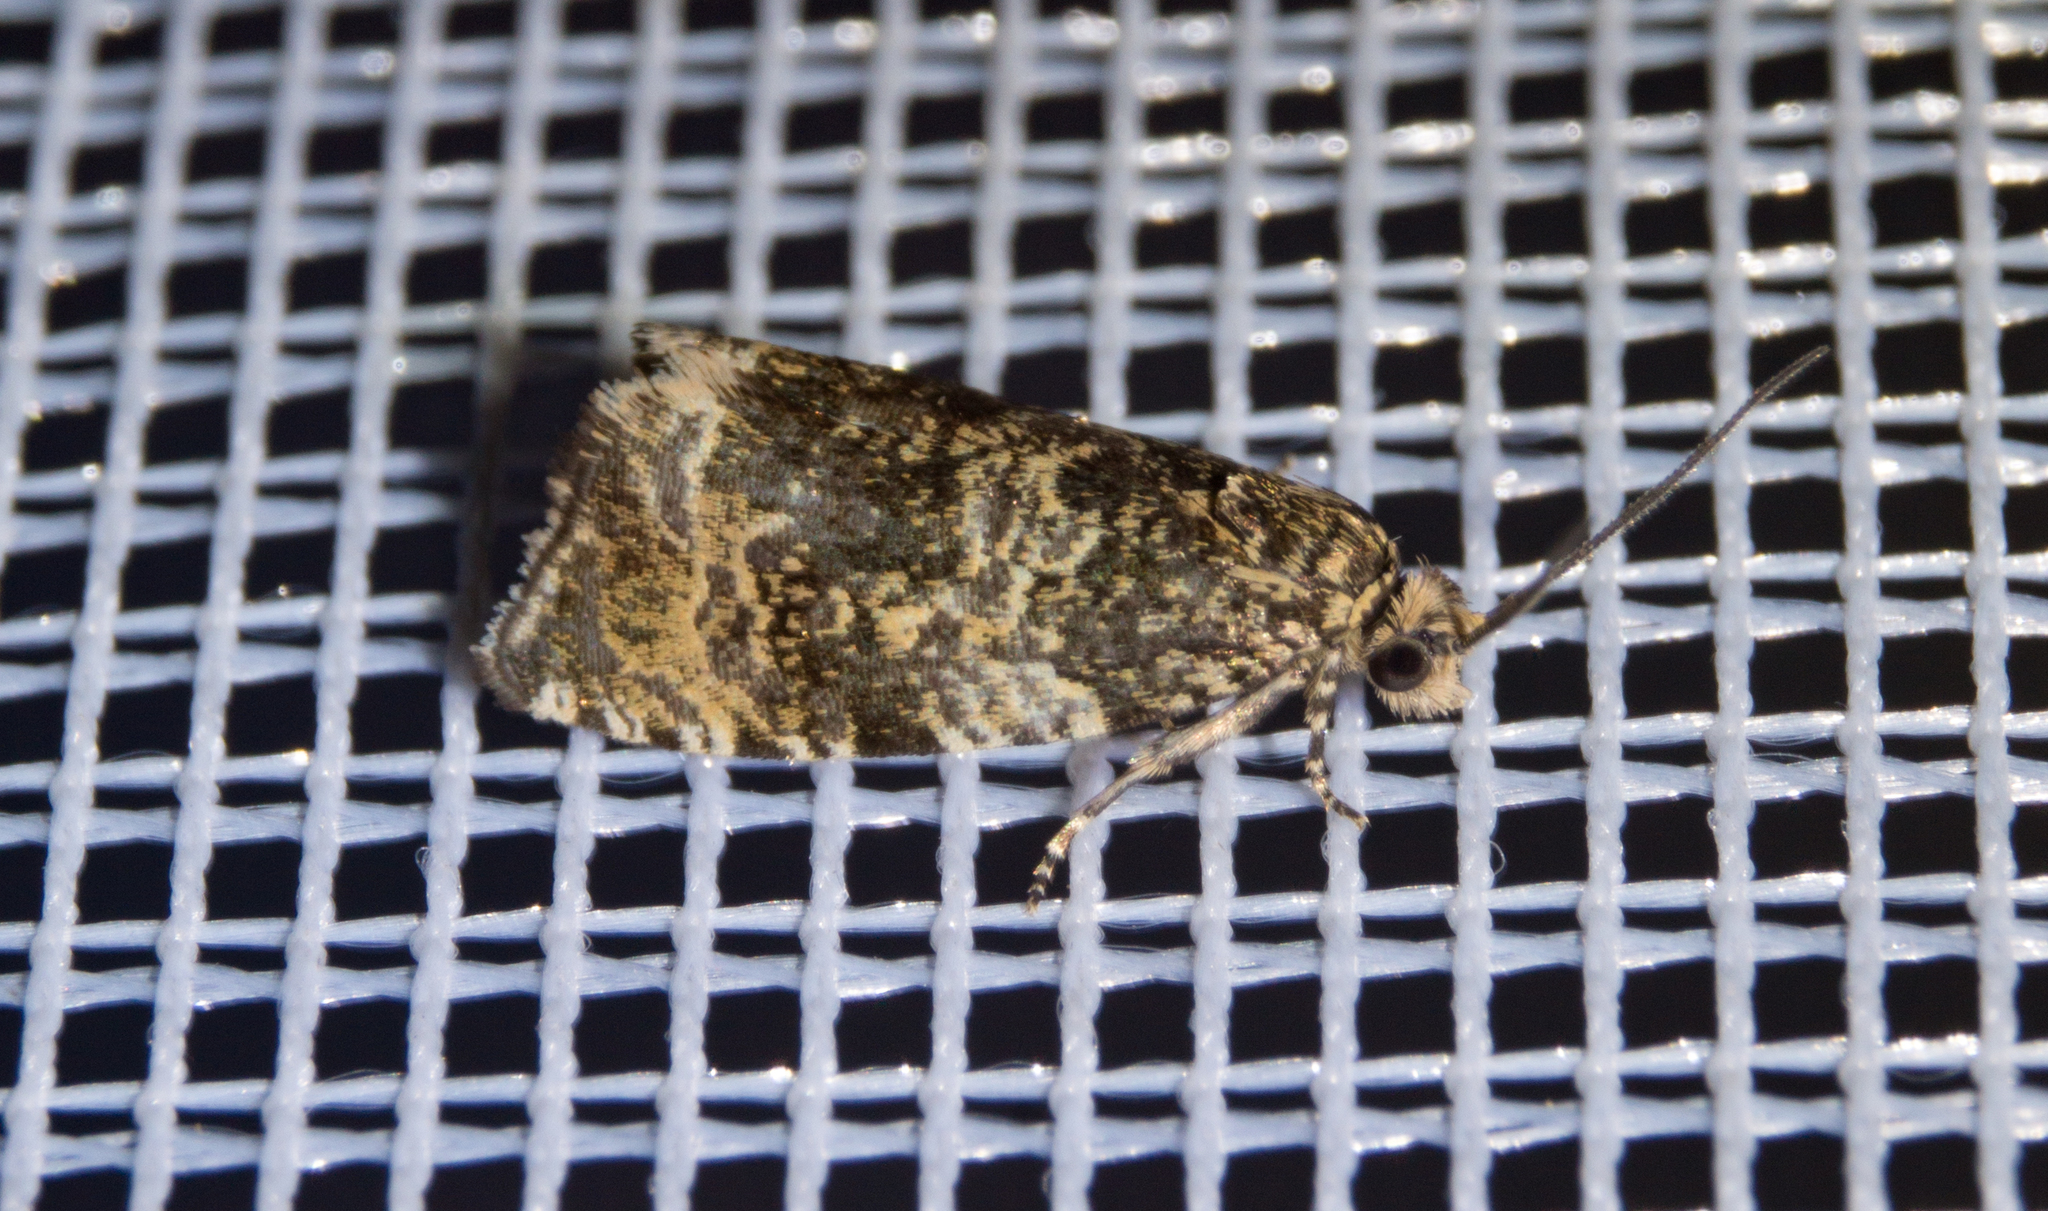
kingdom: Animalia
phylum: Arthropoda
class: Insecta
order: Lepidoptera
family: Tortricidae
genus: Syricoris
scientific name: Syricoris lacunana
